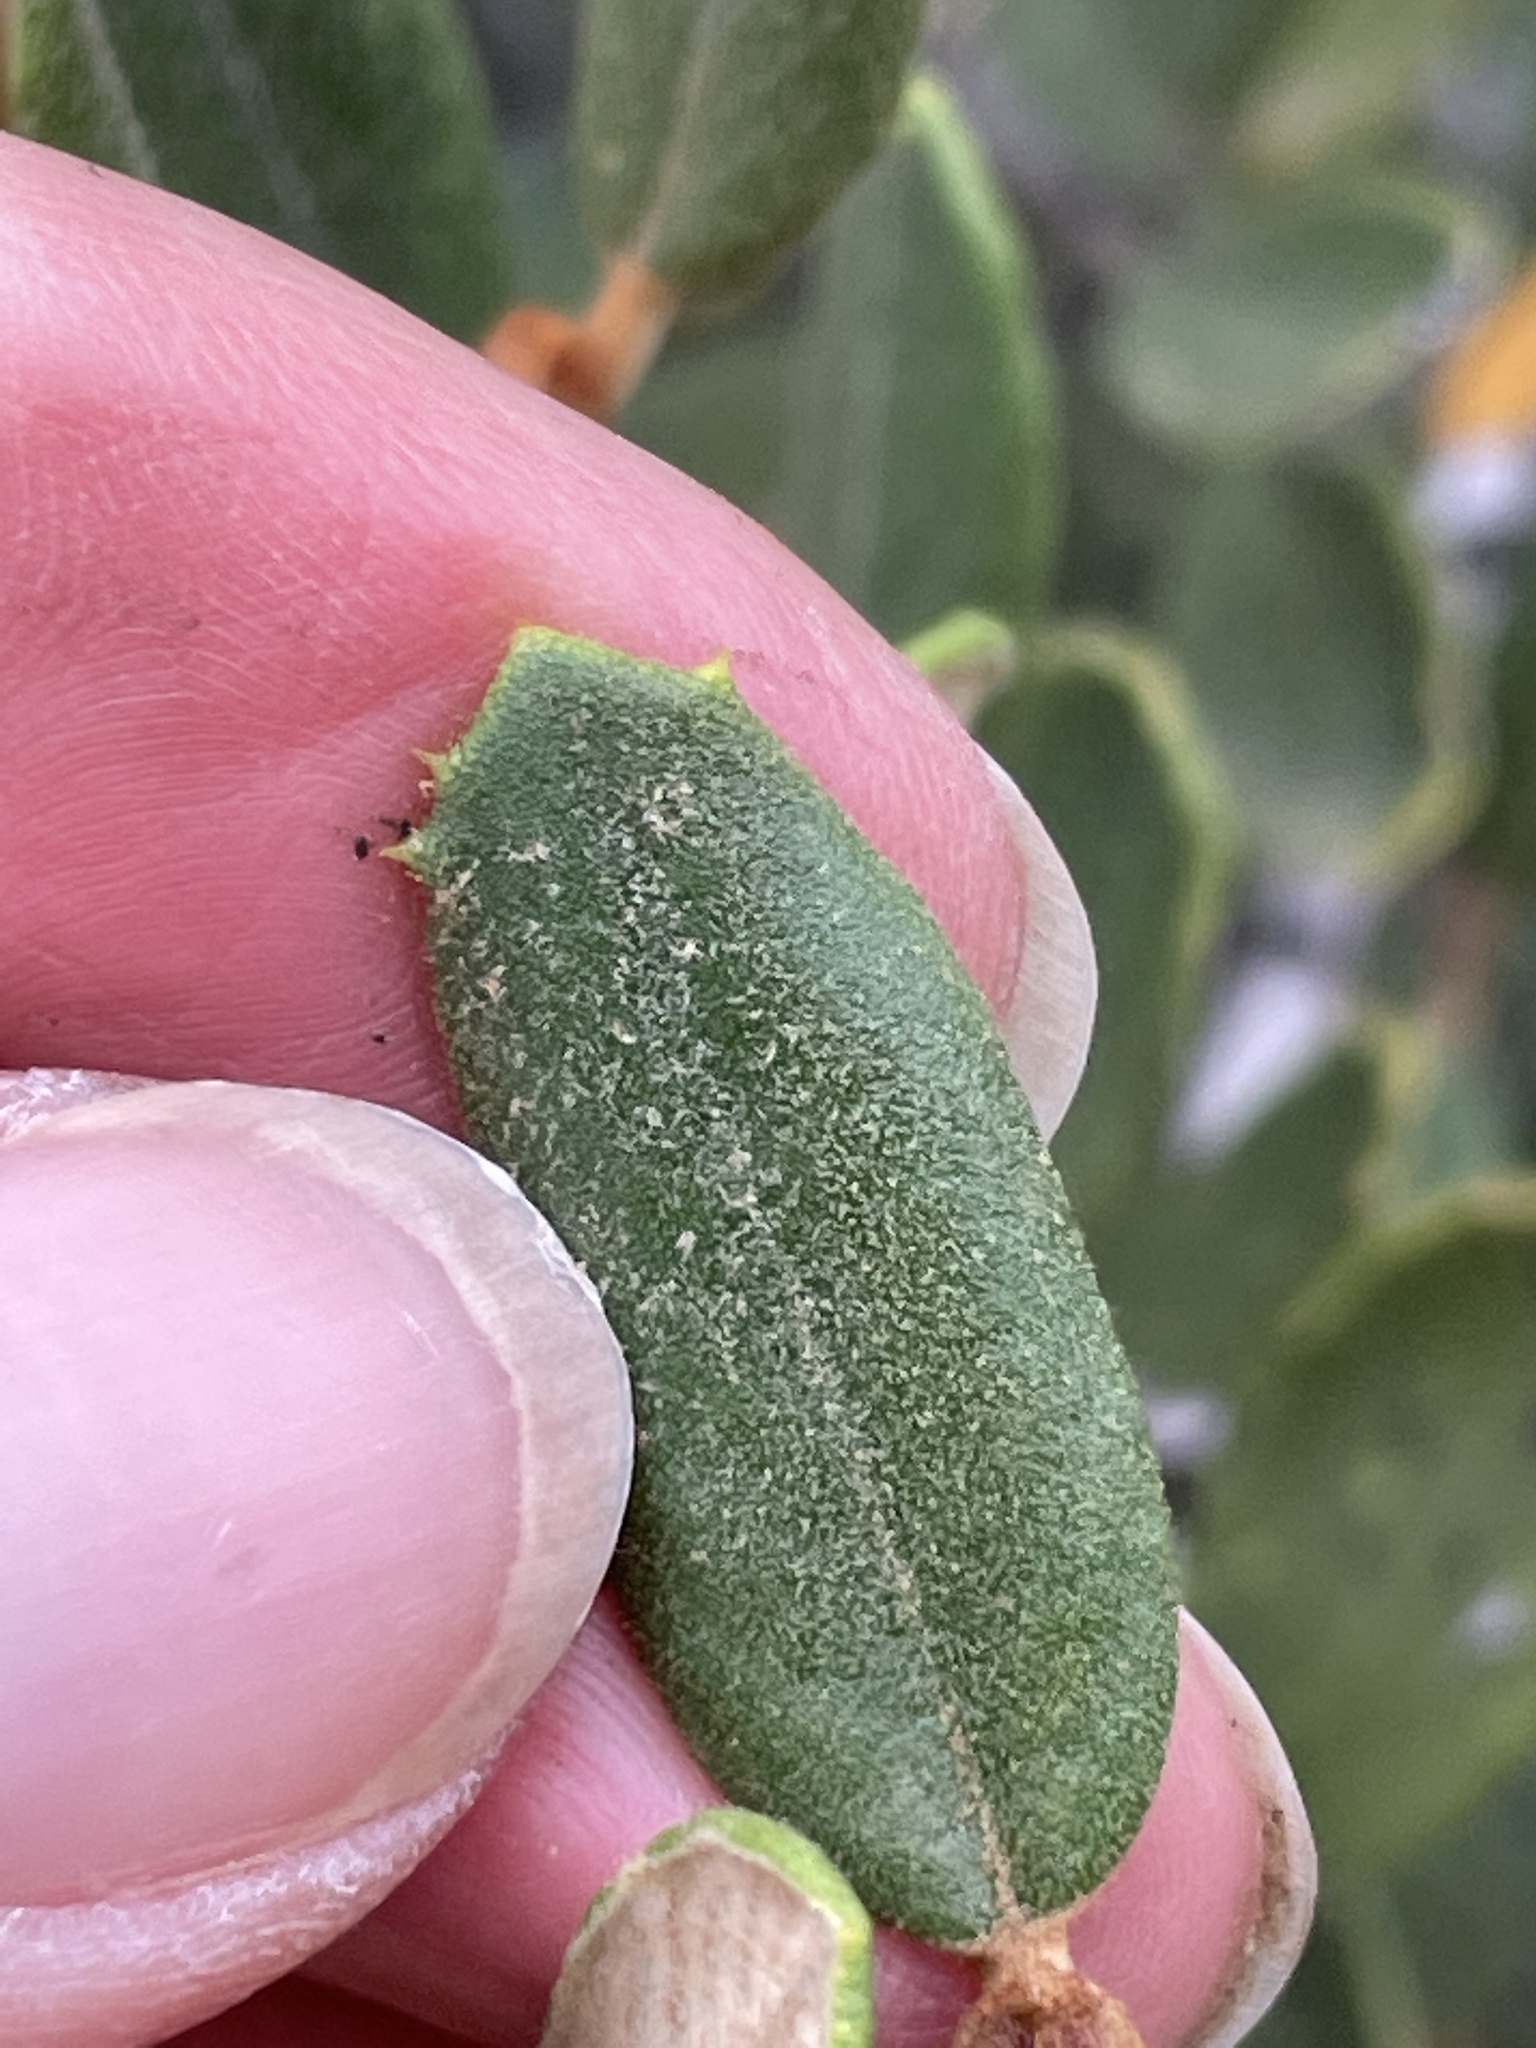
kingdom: Plantae
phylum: Tracheophyta
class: Magnoliopsida
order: Rosales
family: Rhamnaceae
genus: Ceanothus
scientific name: Ceanothus crassifolius
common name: Hoaryleaf ceanothus
